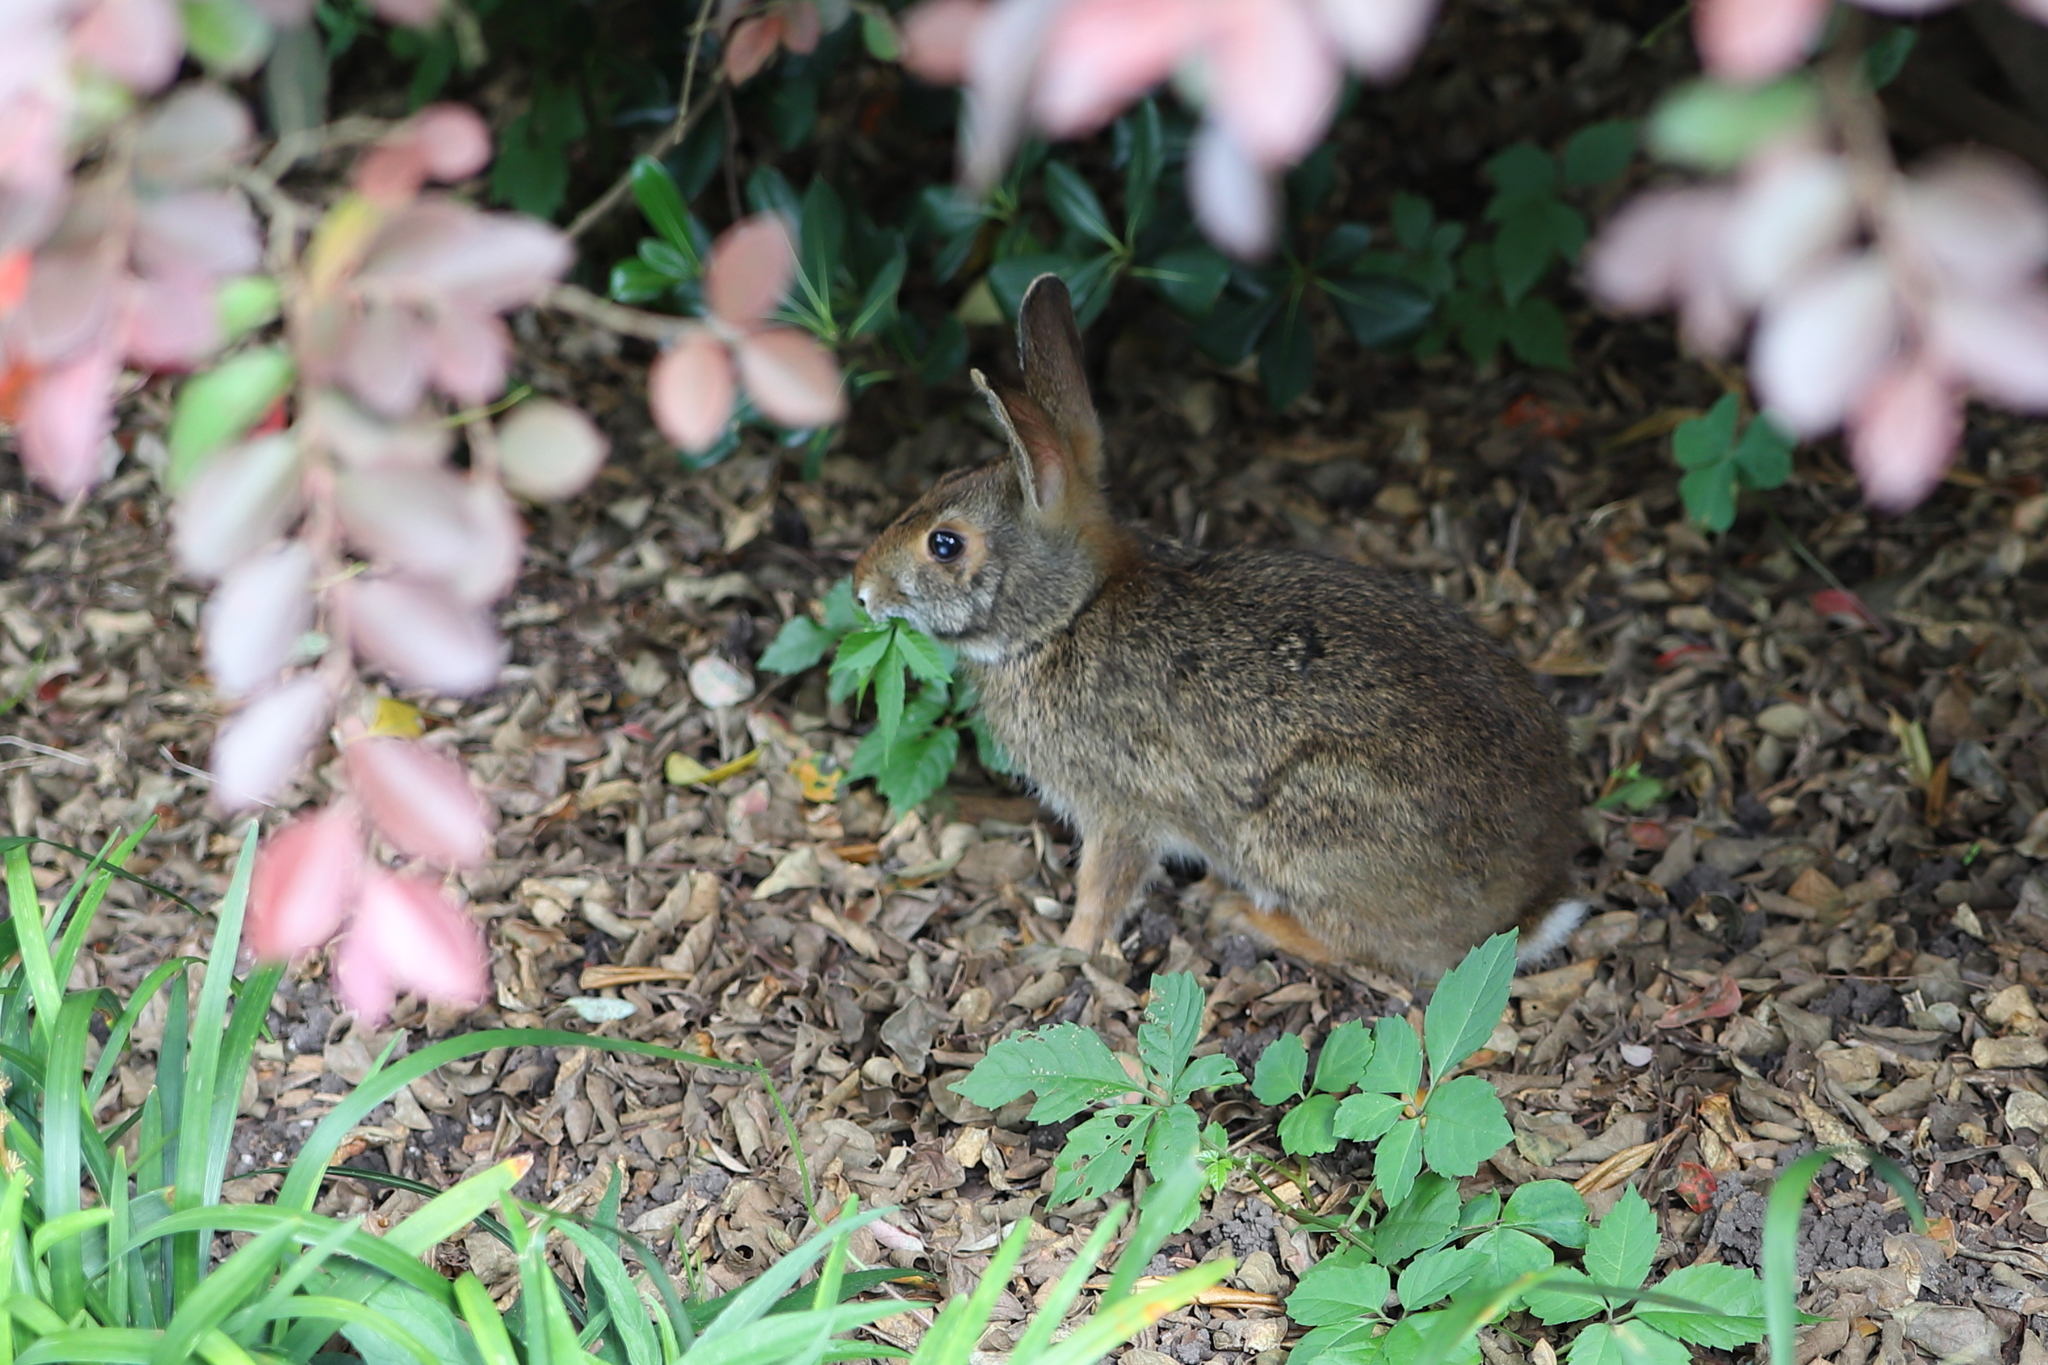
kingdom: Animalia
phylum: Chordata
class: Mammalia
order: Lagomorpha
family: Leporidae
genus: Sylvilagus
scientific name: Sylvilagus aquaticus
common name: Swamp rabbit
